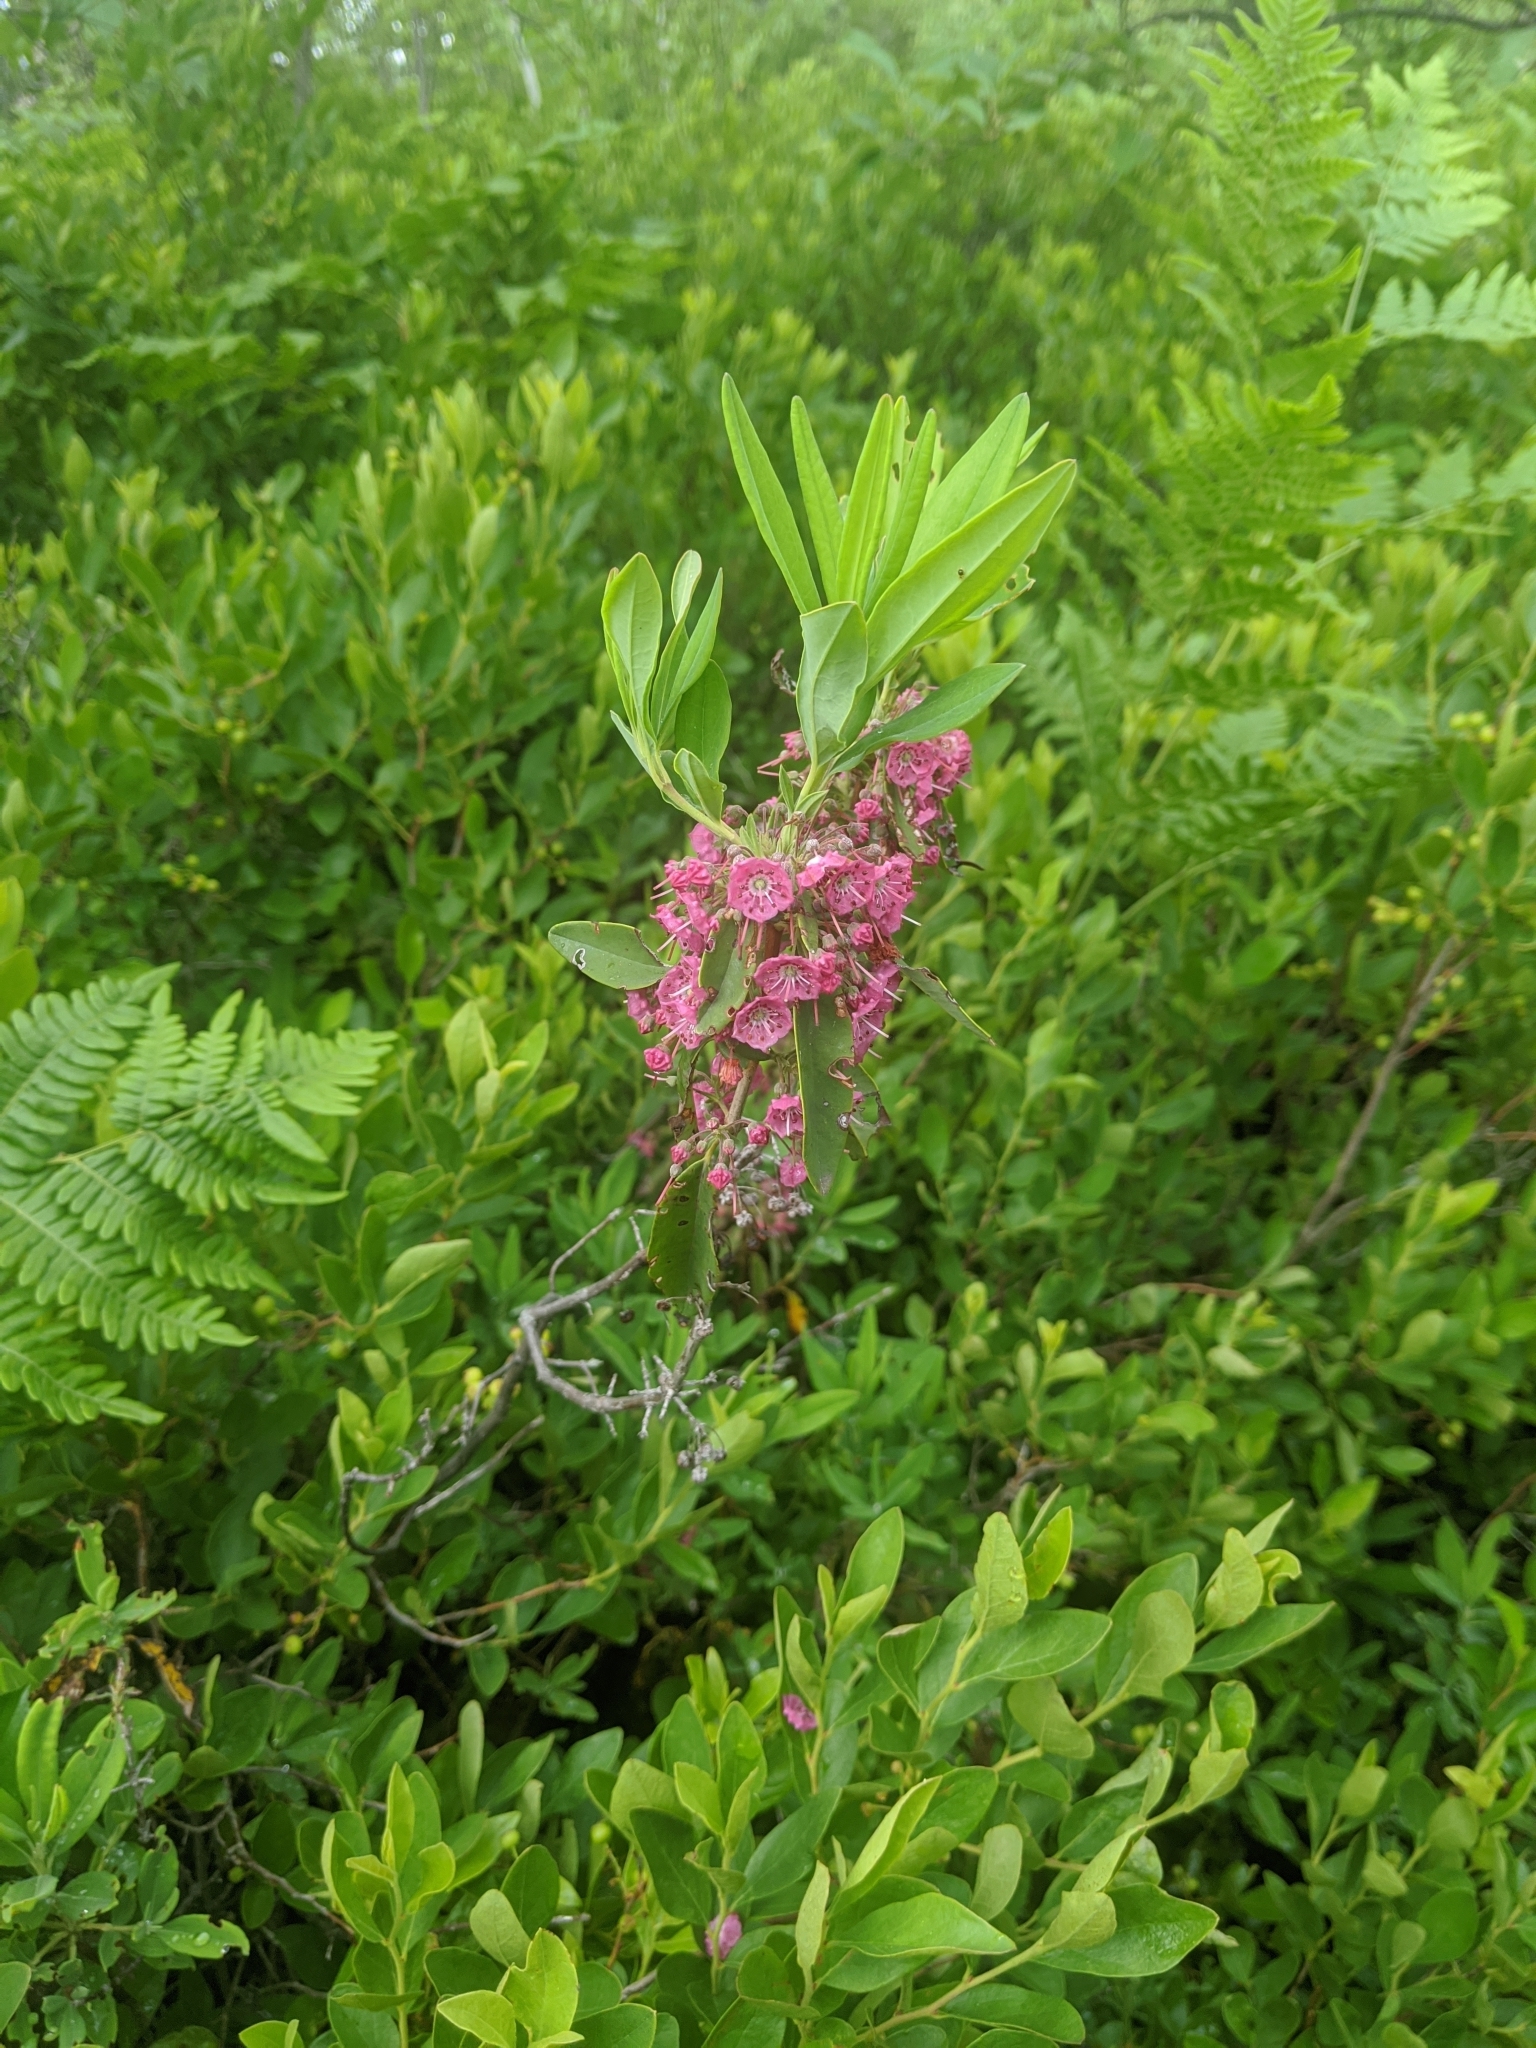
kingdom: Plantae
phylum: Tracheophyta
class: Magnoliopsida
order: Ericales
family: Ericaceae
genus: Kalmia
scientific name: Kalmia angustifolia
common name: Sheep-laurel
